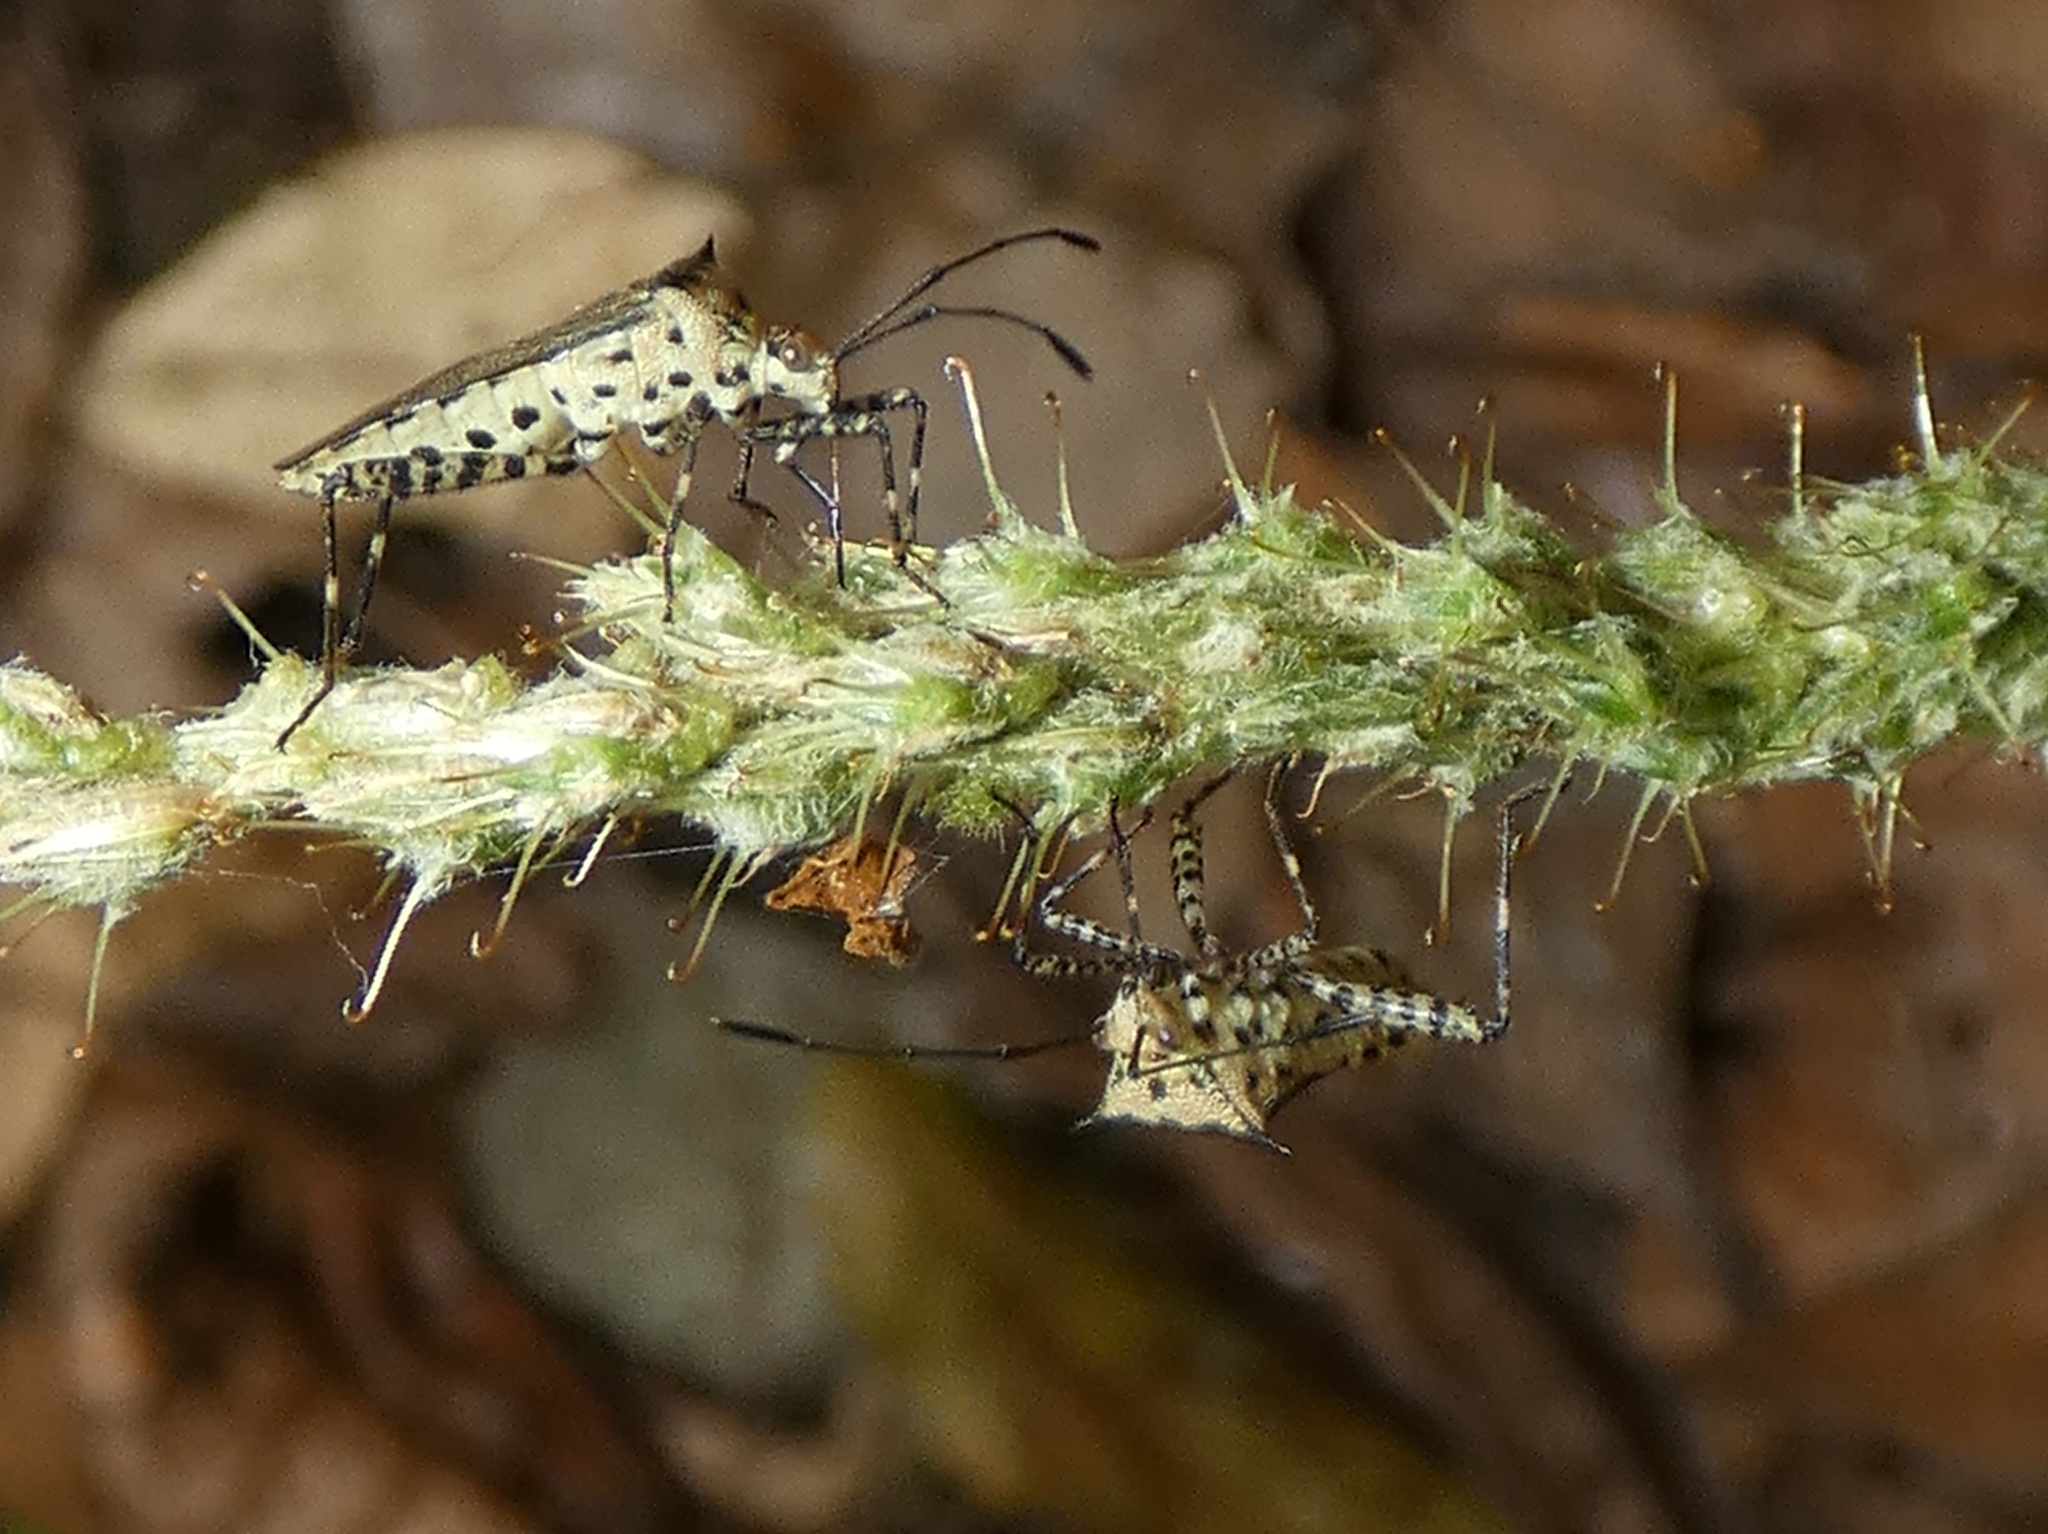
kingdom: Animalia
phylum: Arthropoda
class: Insecta
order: Hemiptera
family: Coreidae
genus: Zicca
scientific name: Zicca commaculata
